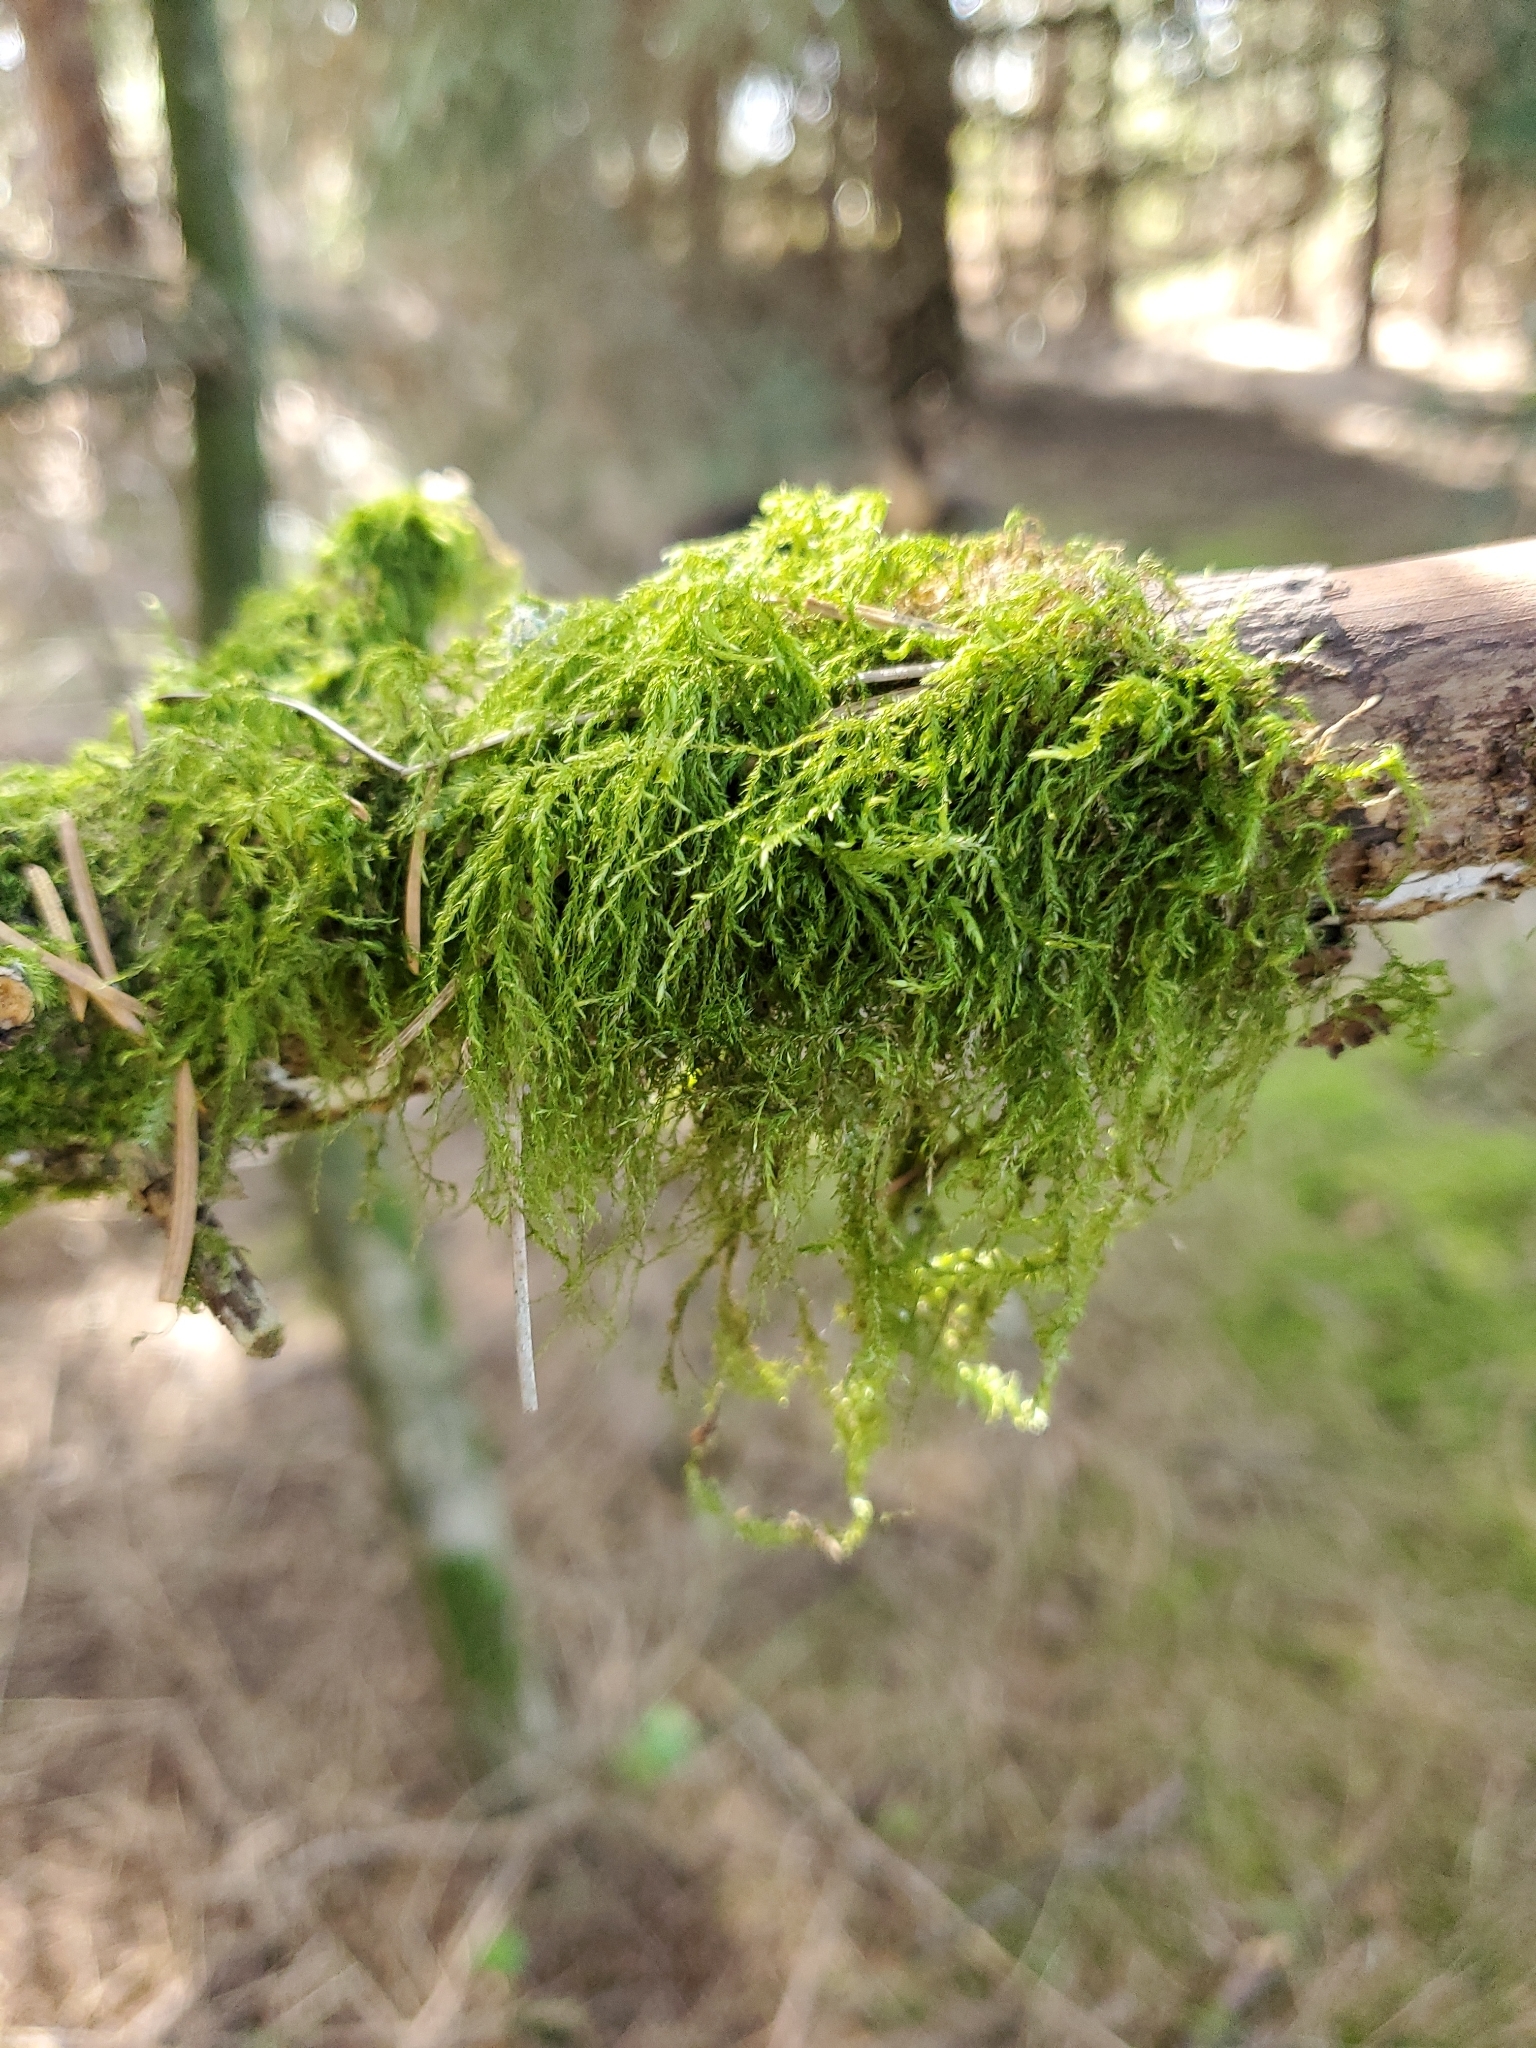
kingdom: Plantae
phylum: Bryophyta
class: Bryopsida
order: Hypnales
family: Lembophyllaceae
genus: Pseudisothecium
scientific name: Pseudisothecium stoloniferum
